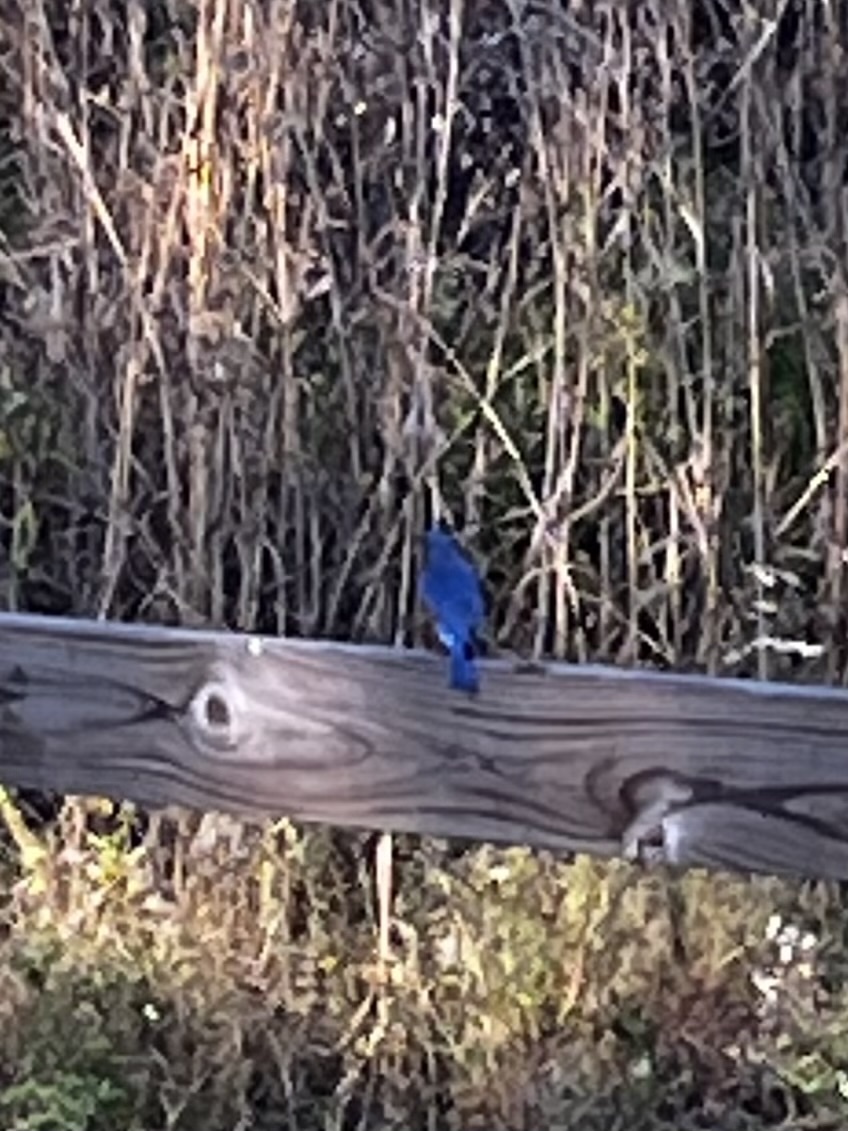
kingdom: Animalia
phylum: Chordata
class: Aves
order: Passeriformes
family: Turdidae
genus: Sialia
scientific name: Sialia sialis
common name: Eastern bluebird
